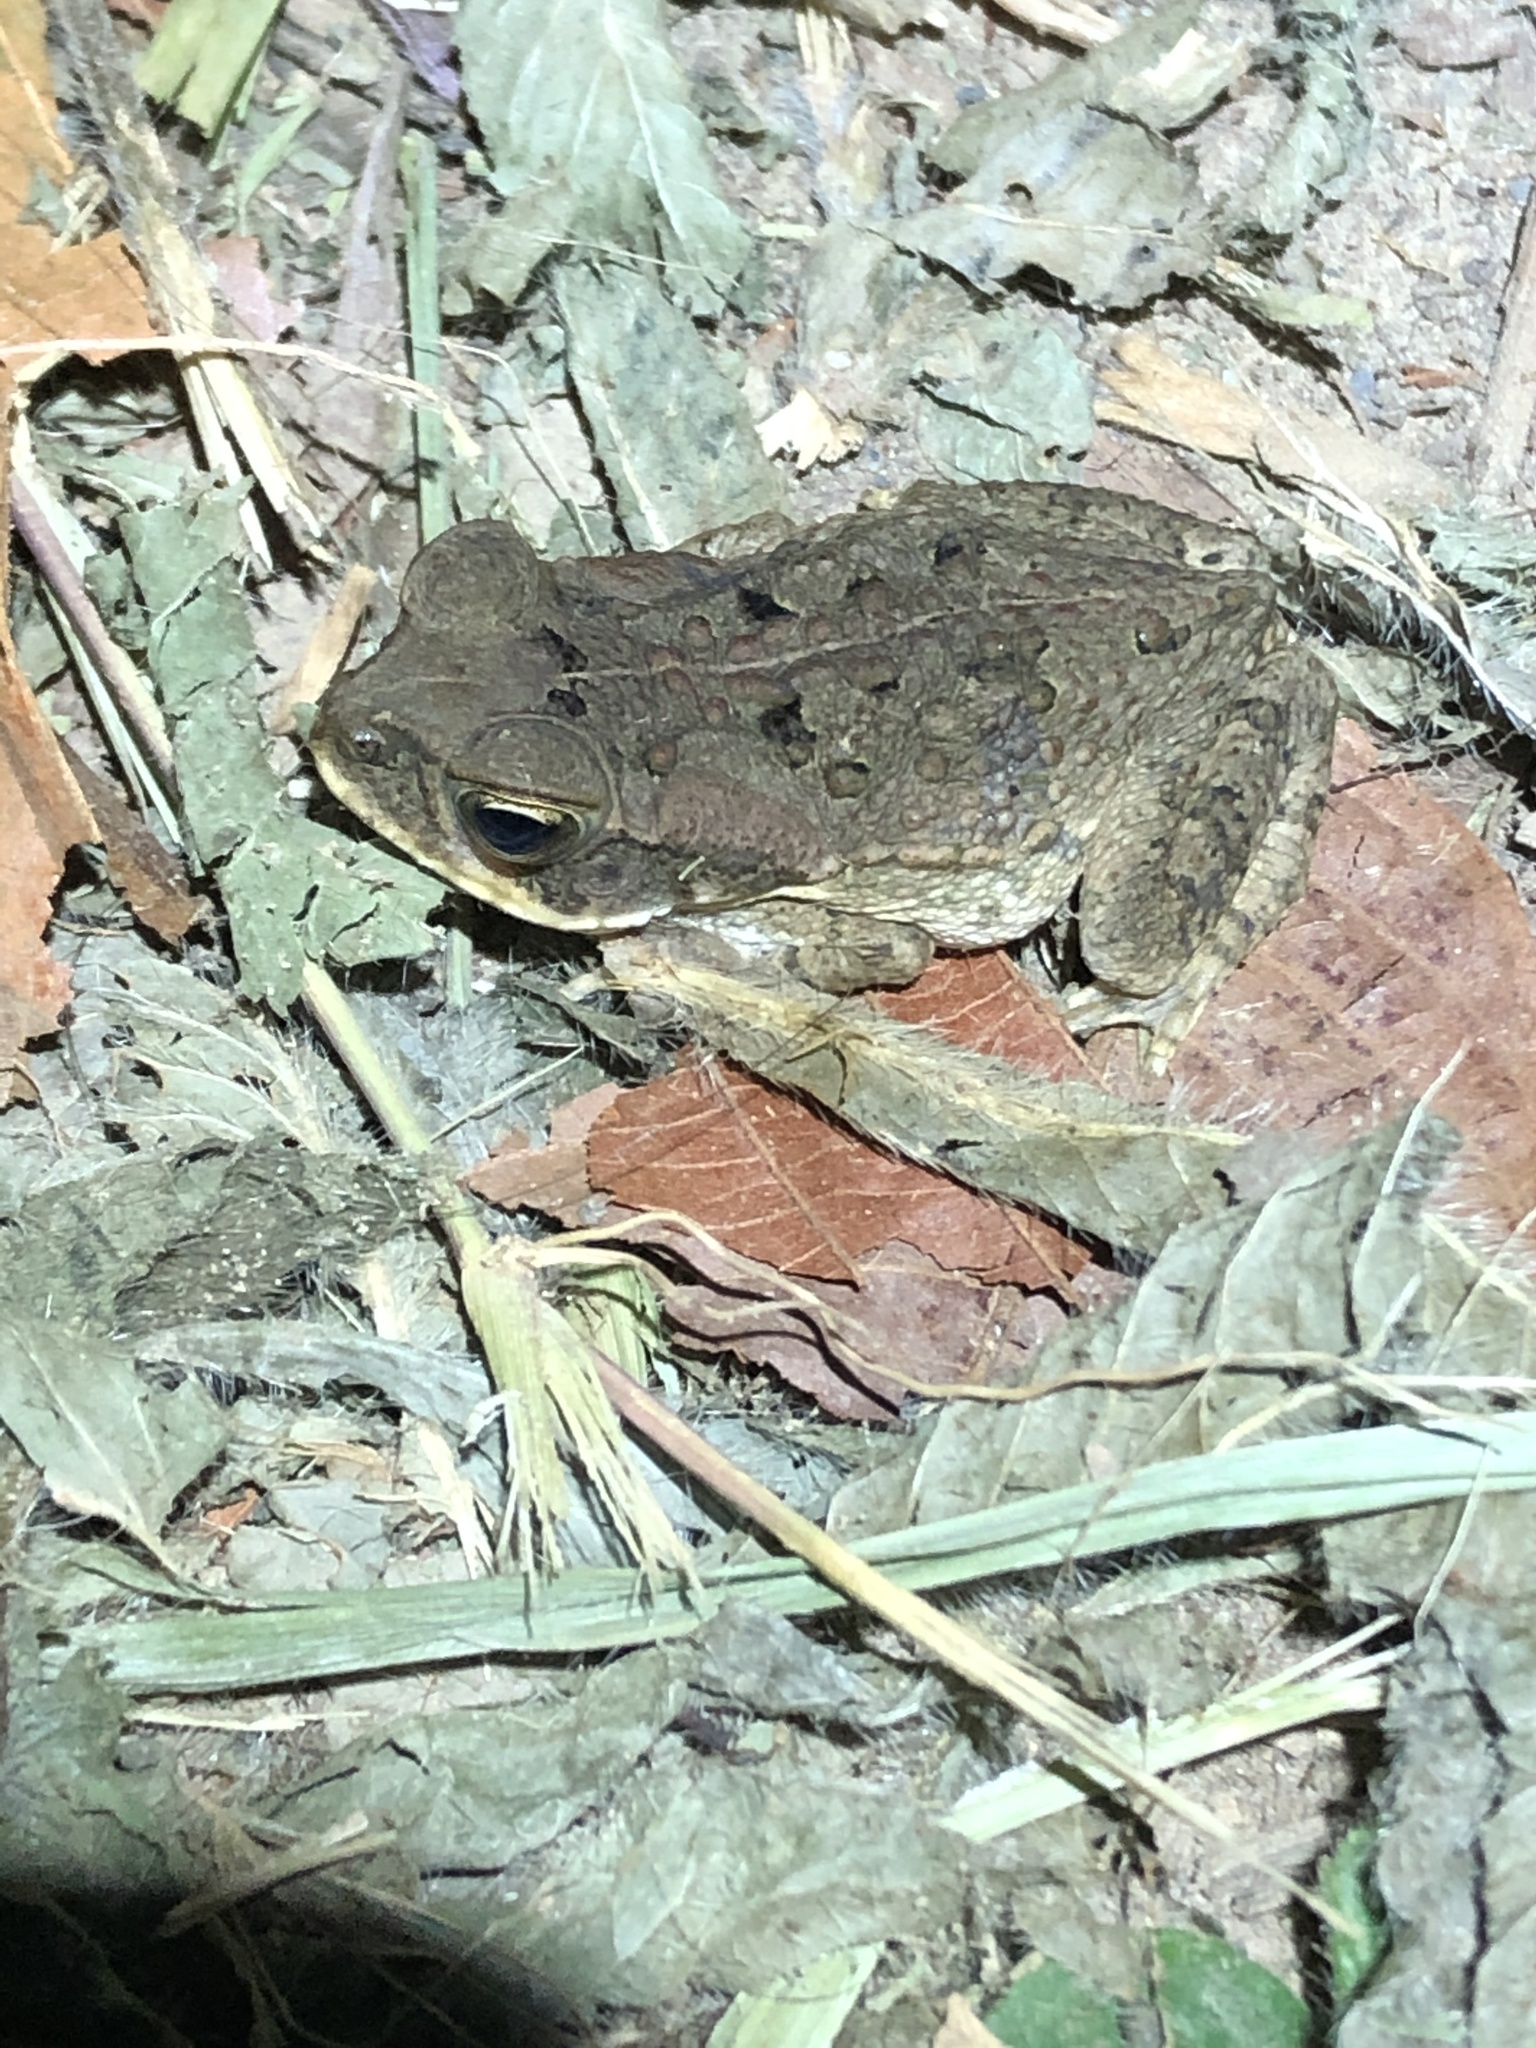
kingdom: Animalia
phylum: Chordata
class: Amphibia
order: Anura
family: Bufonidae
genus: Rhinella
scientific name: Rhinella marina
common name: Cane toad
